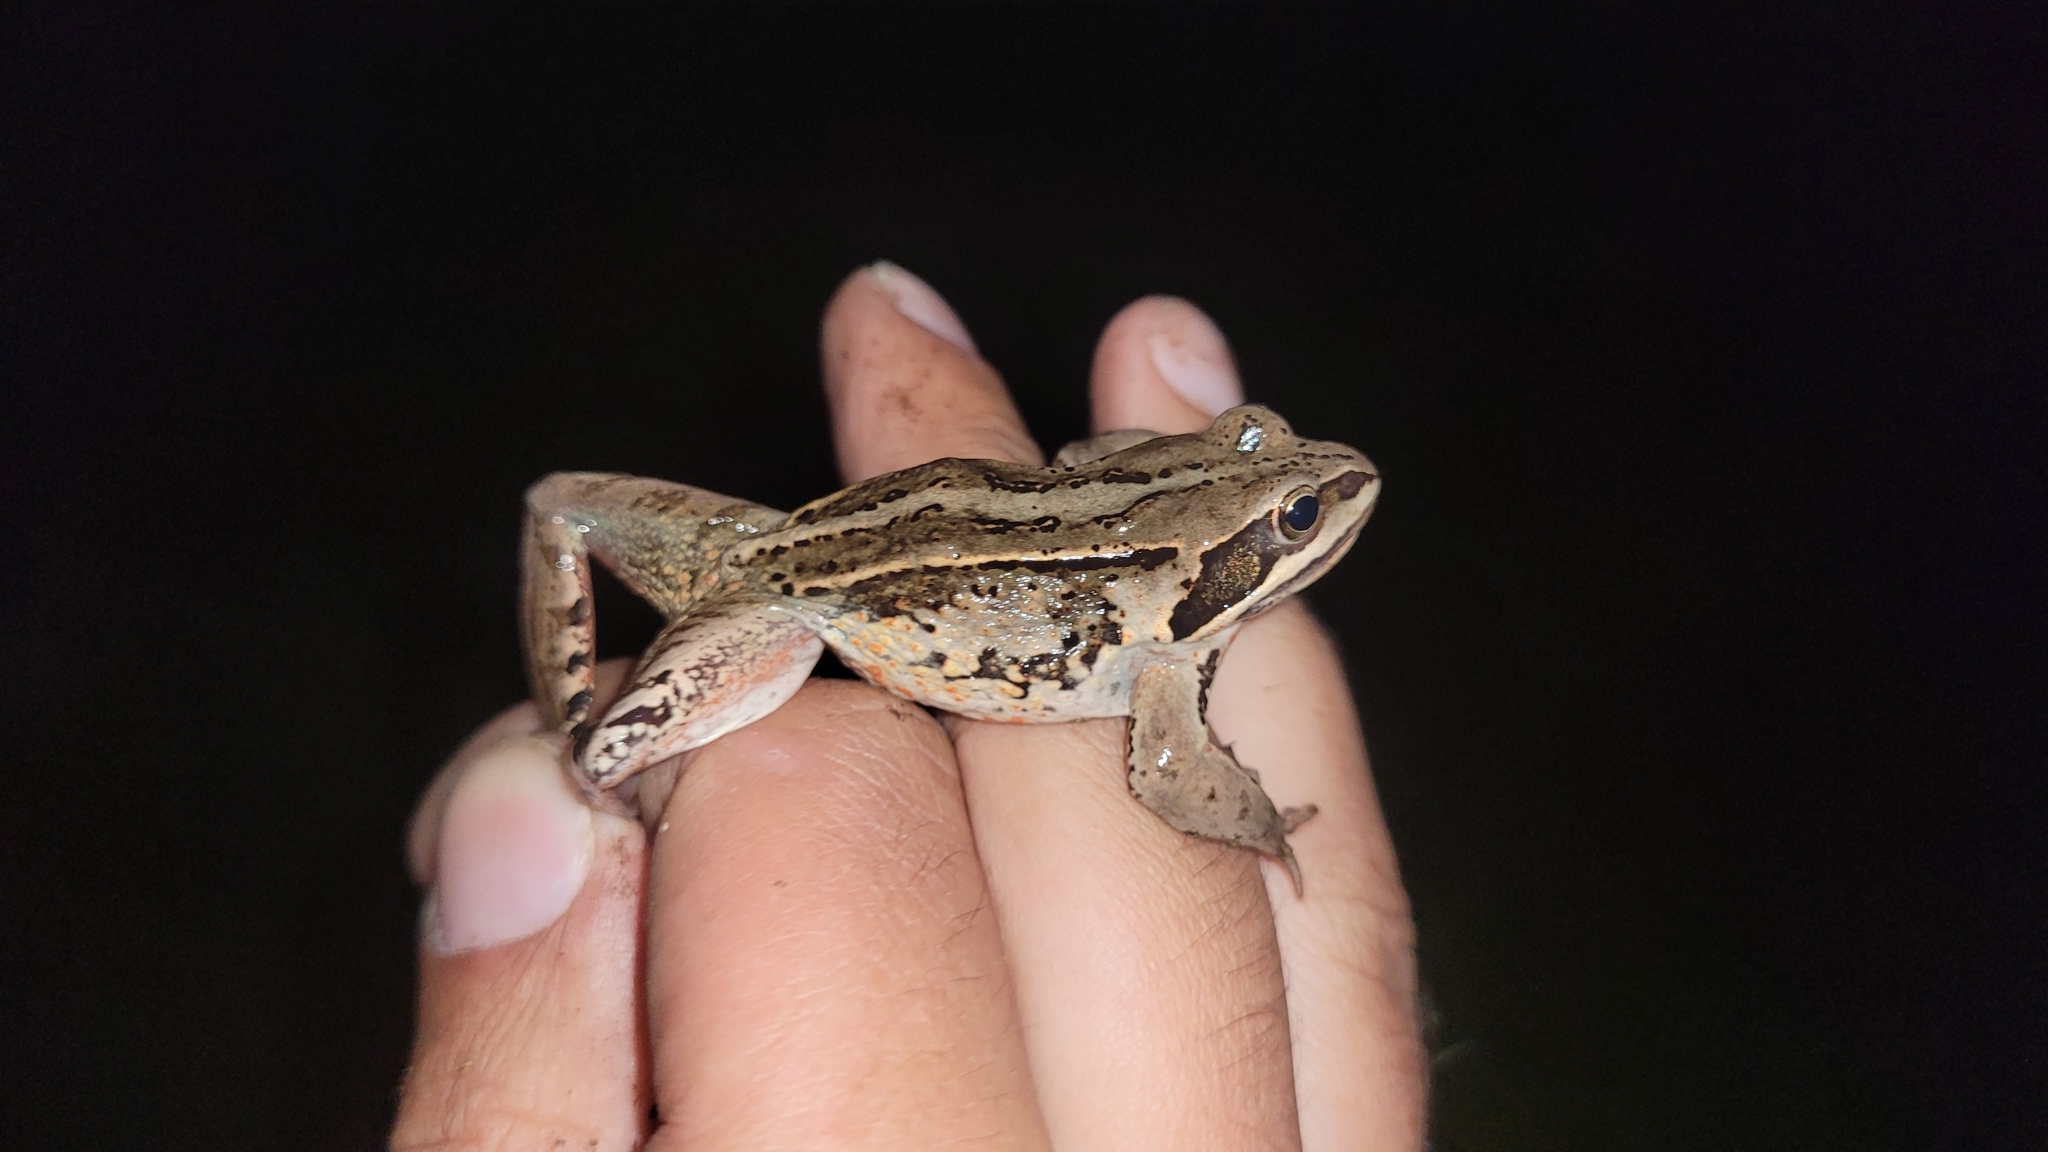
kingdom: Animalia
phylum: Chordata
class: Amphibia
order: Anura
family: Ranidae
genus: Rana
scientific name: Rana amurensis
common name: Amur brown frog
